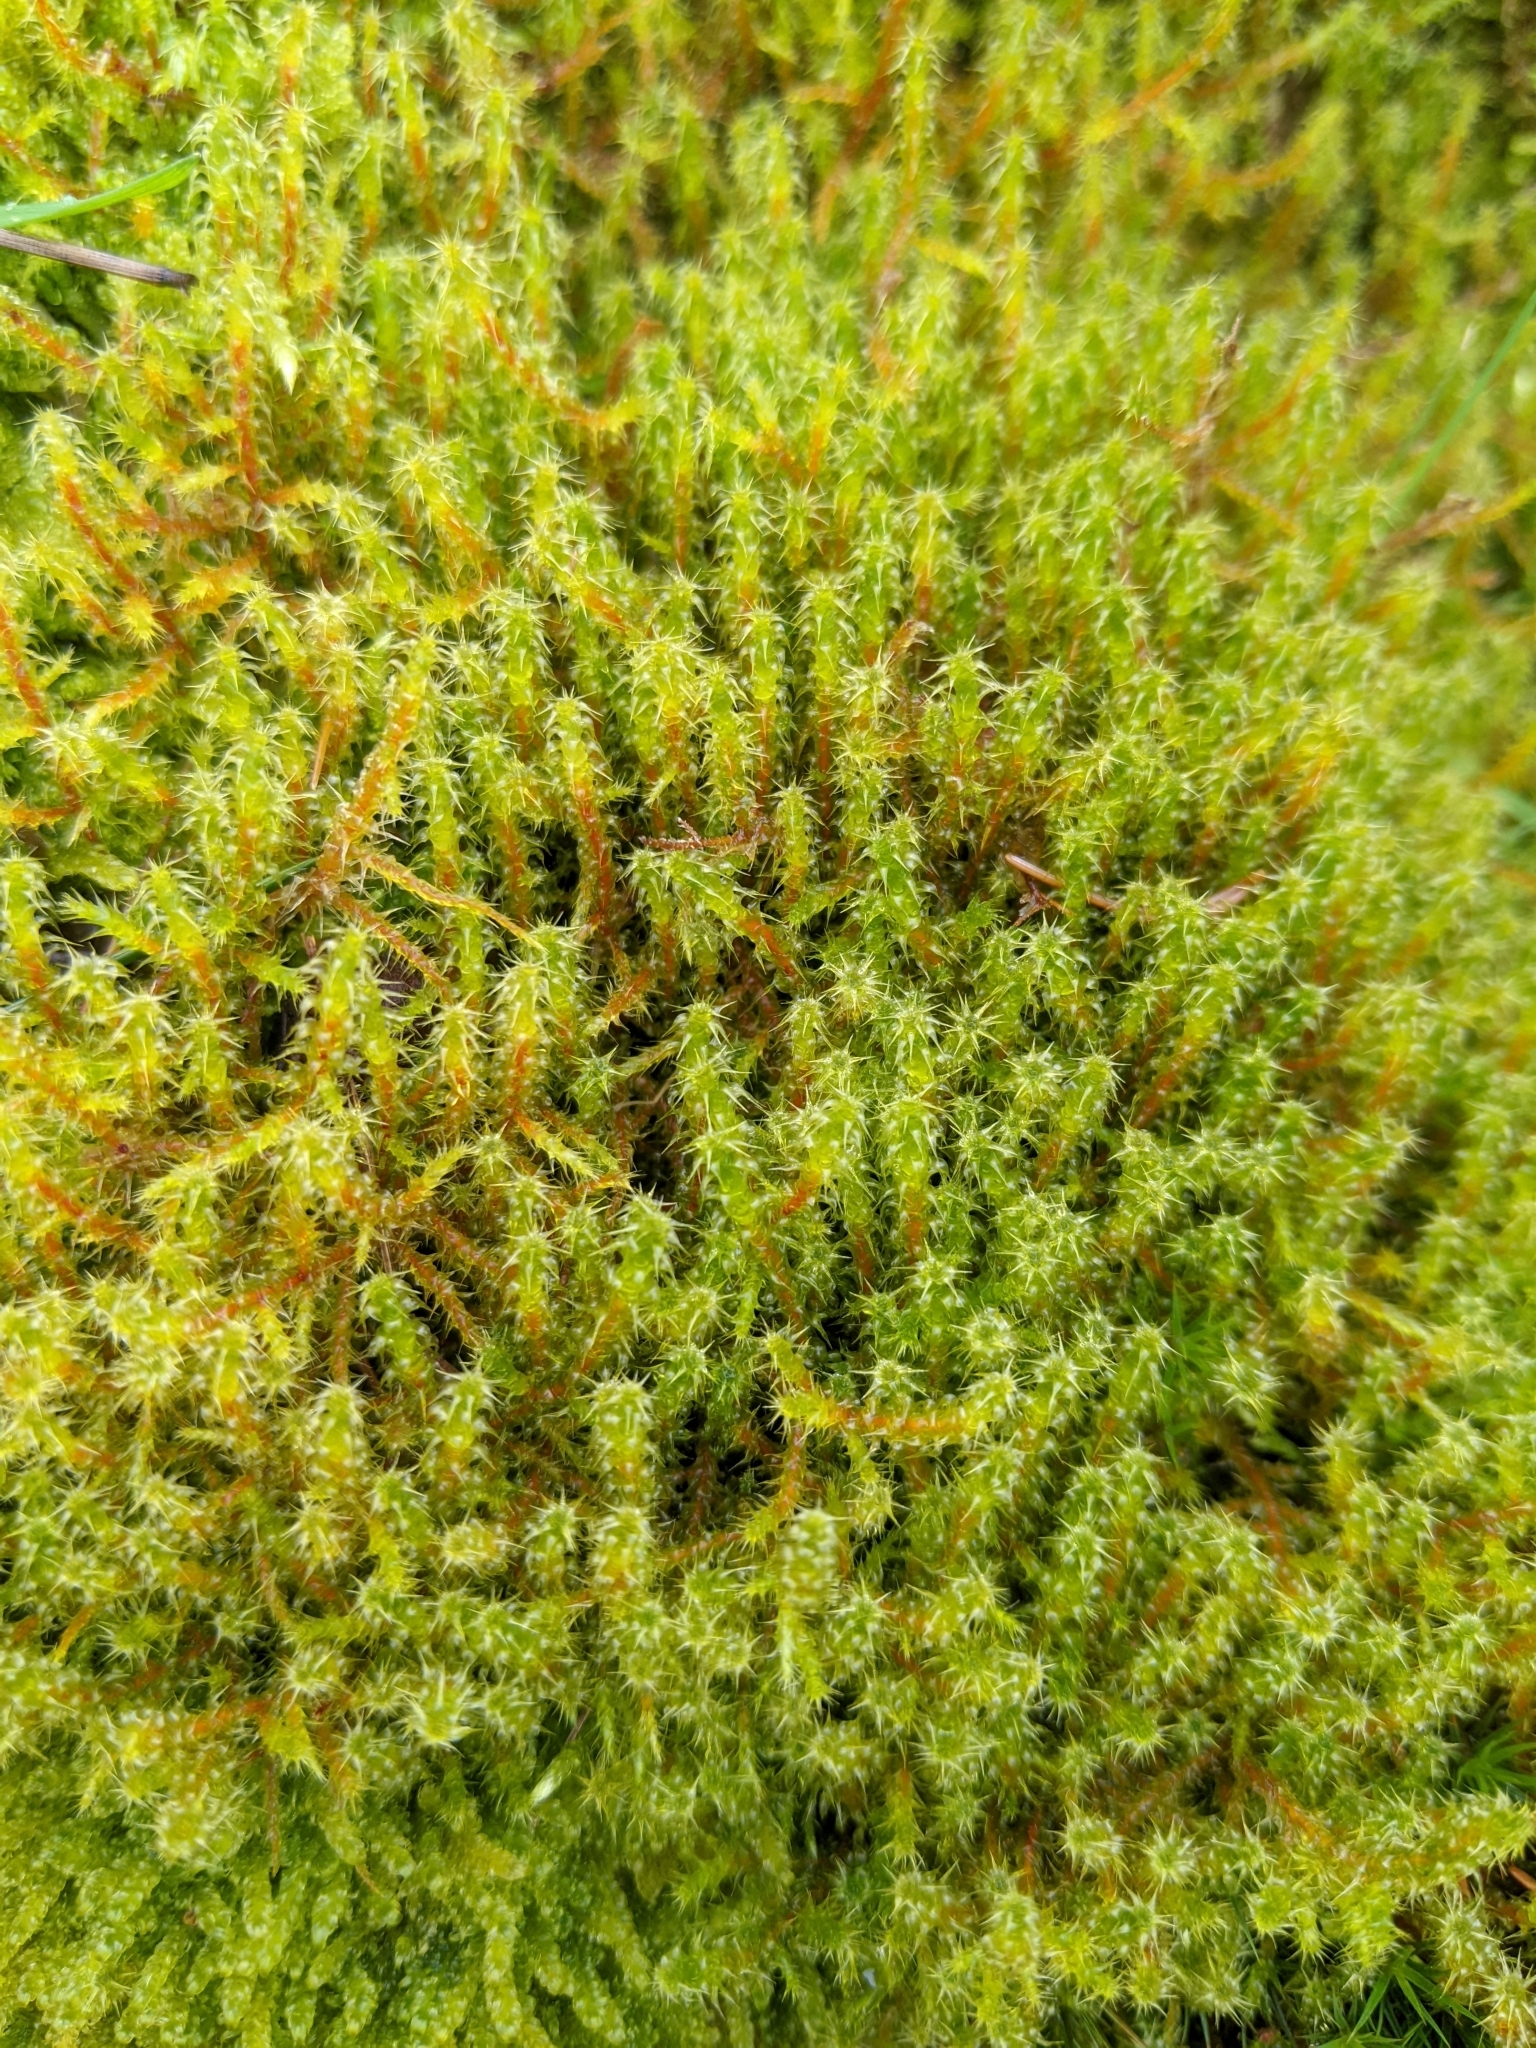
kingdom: Plantae
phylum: Bryophyta
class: Bryopsida
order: Hypnales
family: Hylocomiaceae
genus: Rhytidiadelphus
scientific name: Rhytidiadelphus squarrosus
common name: Springy turf-moss
